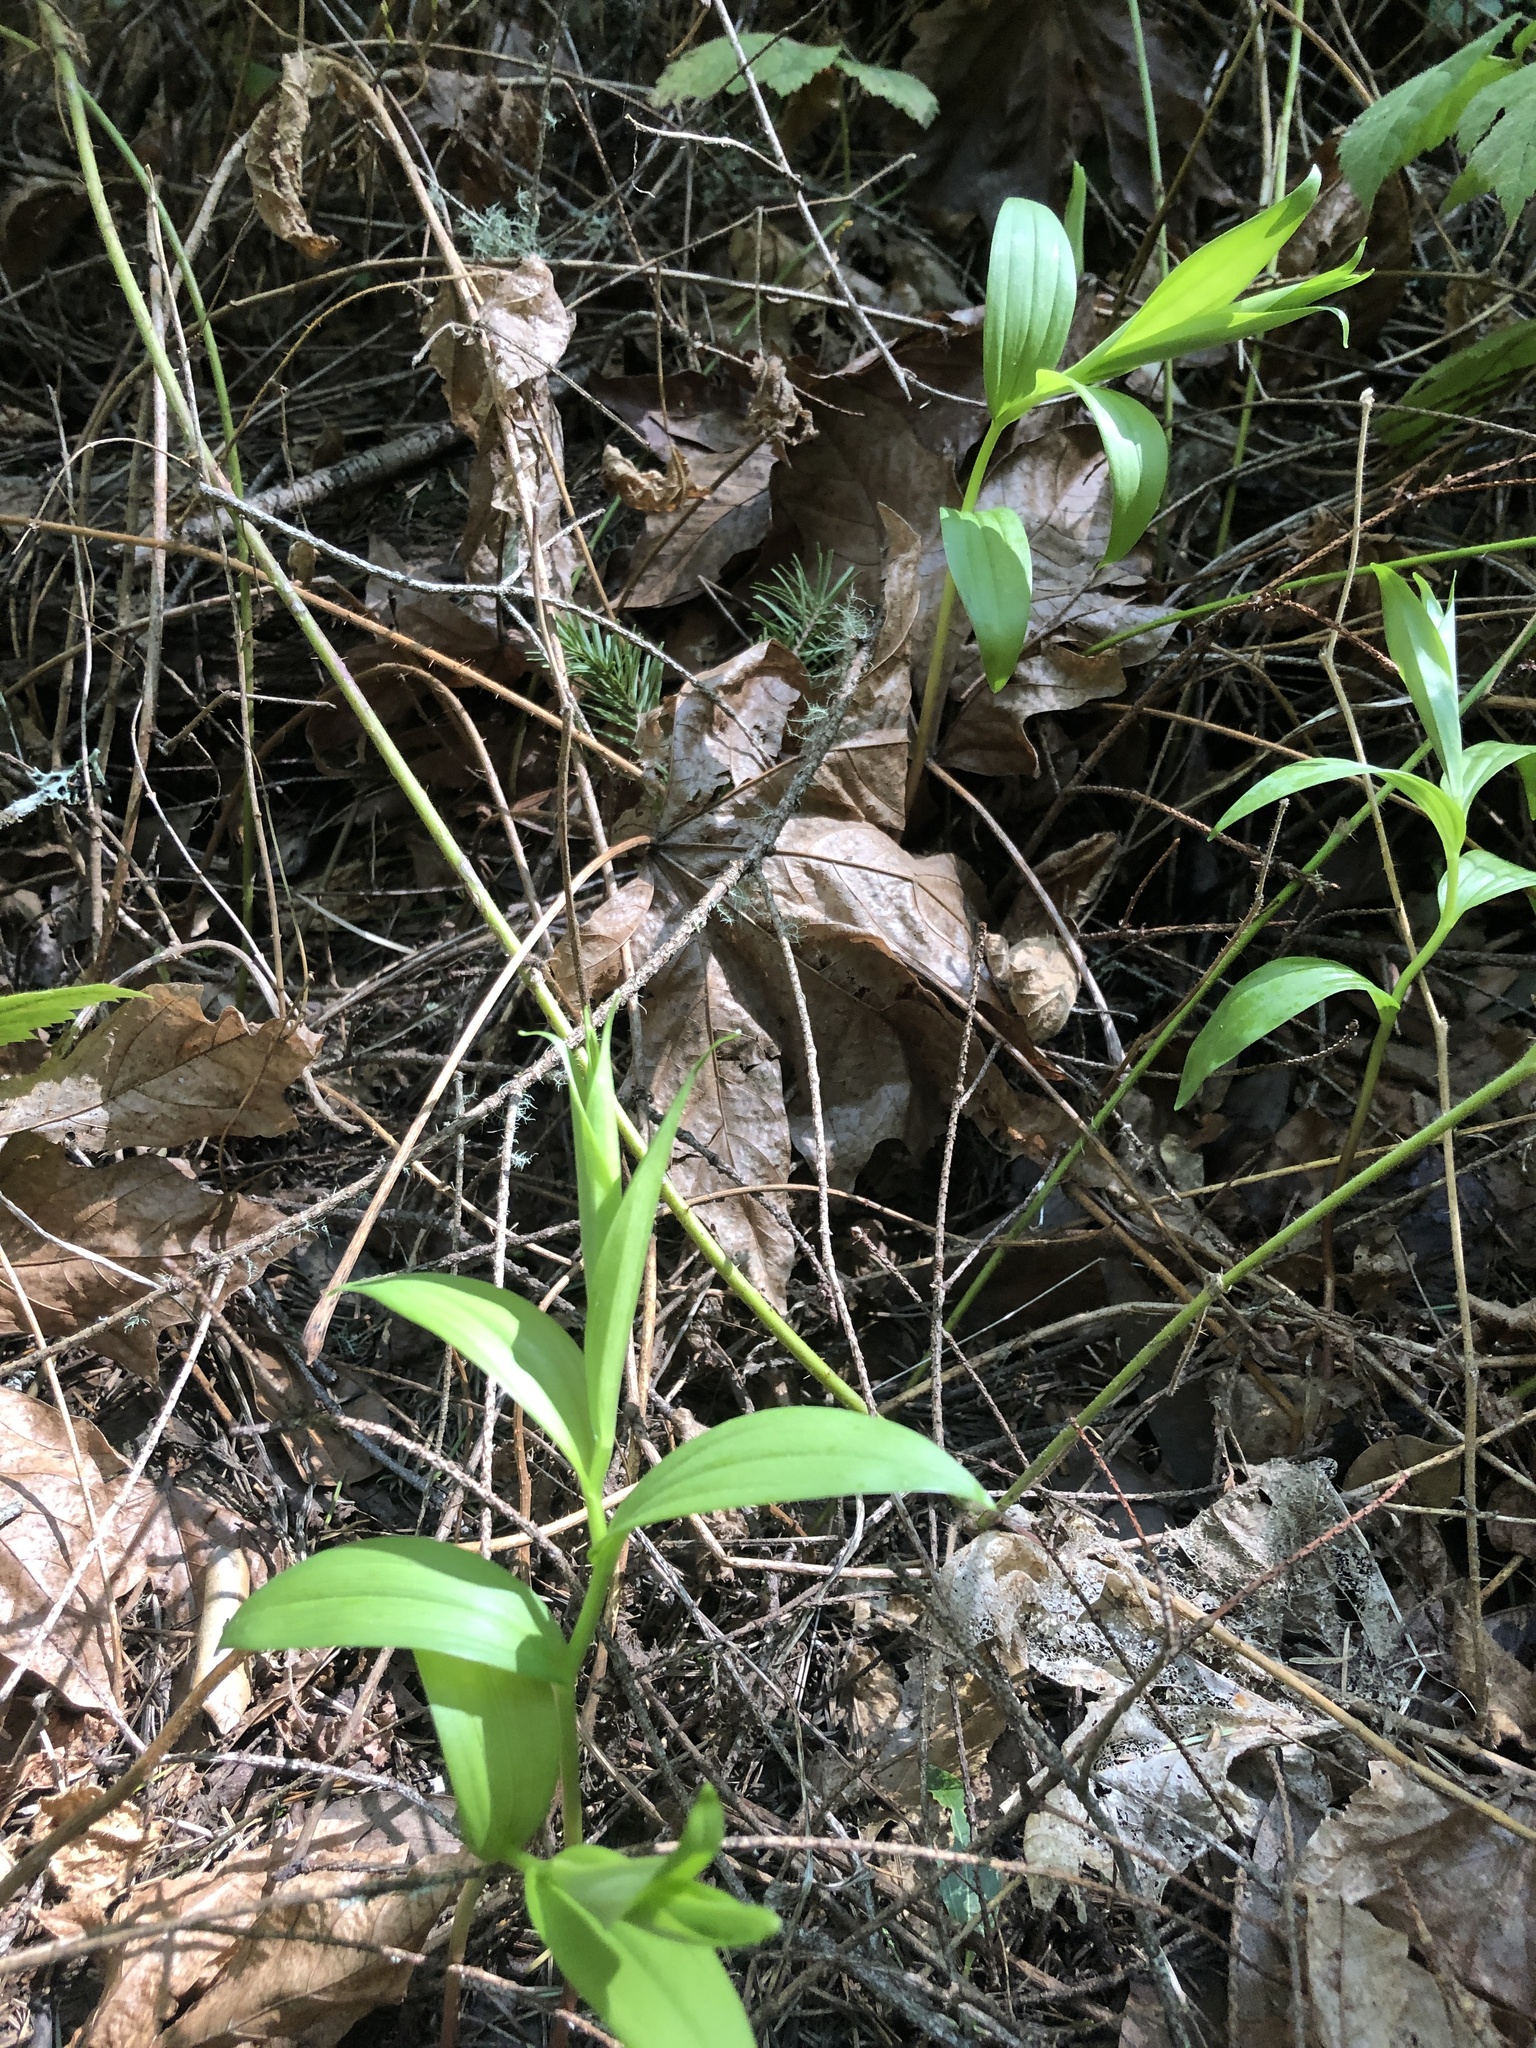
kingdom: Plantae
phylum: Tracheophyta
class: Liliopsida
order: Asparagales
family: Asparagaceae
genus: Maianthemum
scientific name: Maianthemum stellatum
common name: Little false solomon's seal
